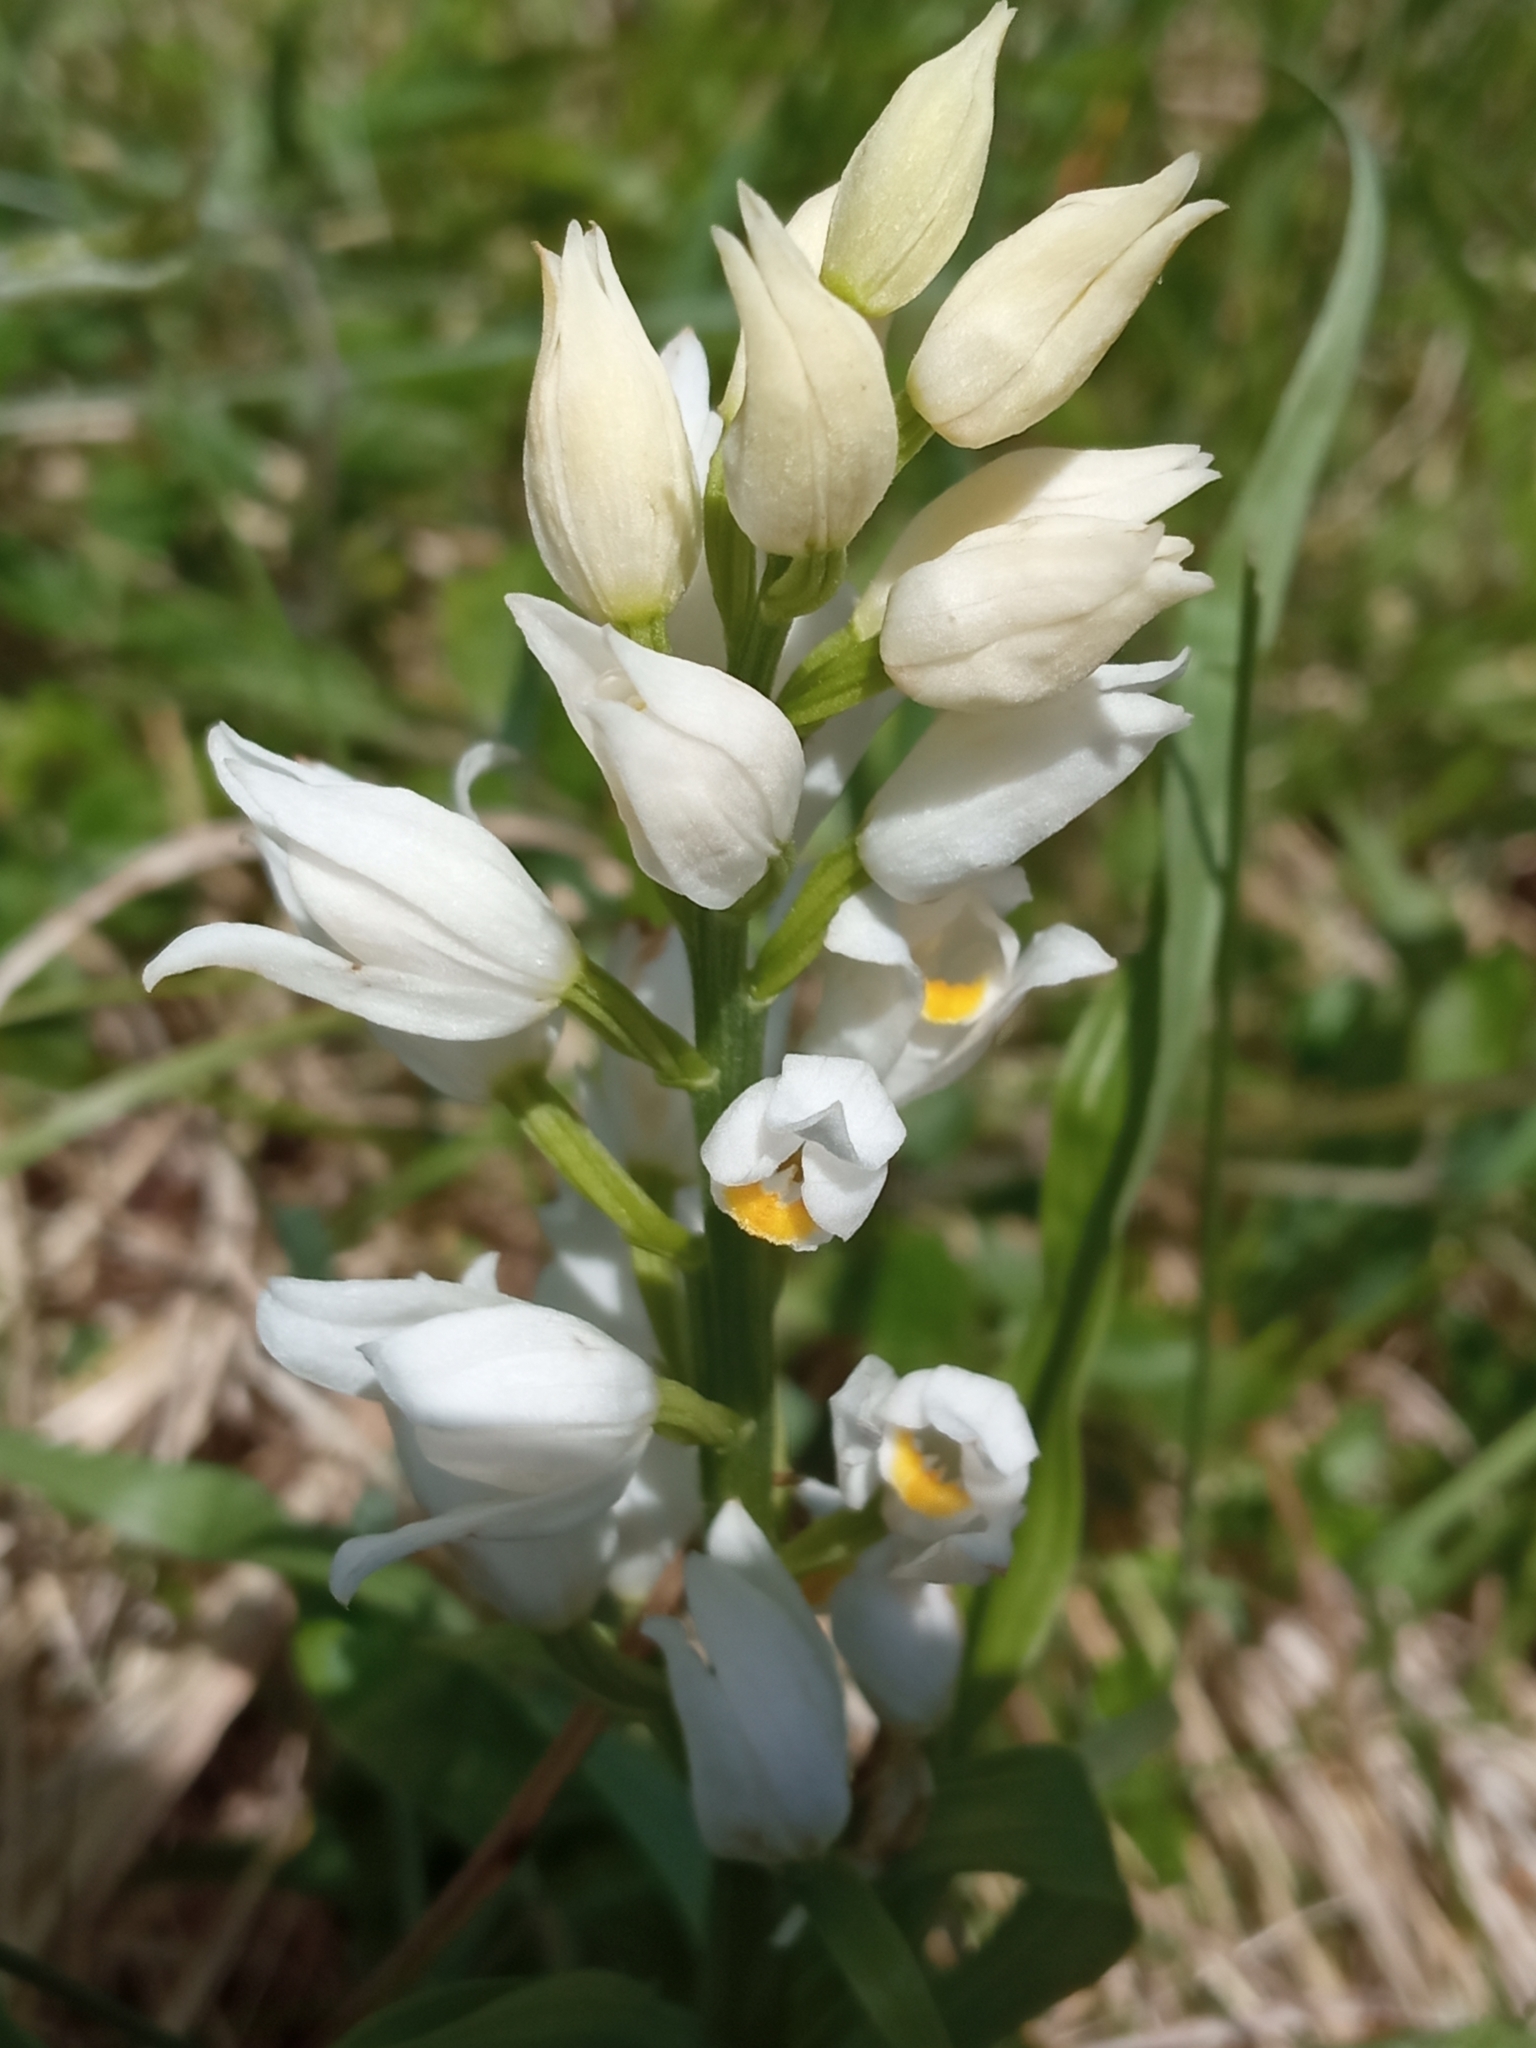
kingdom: Plantae
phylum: Tracheophyta
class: Liliopsida
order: Asparagales
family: Orchidaceae
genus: Cephalanthera
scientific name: Cephalanthera longifolia
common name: Narrow-leaved helleborine
